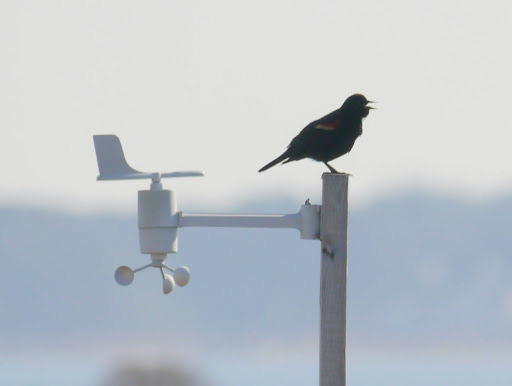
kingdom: Animalia
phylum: Chordata
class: Aves
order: Passeriformes
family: Icteridae
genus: Agelaius
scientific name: Agelaius phoeniceus
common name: Red-winged blackbird
